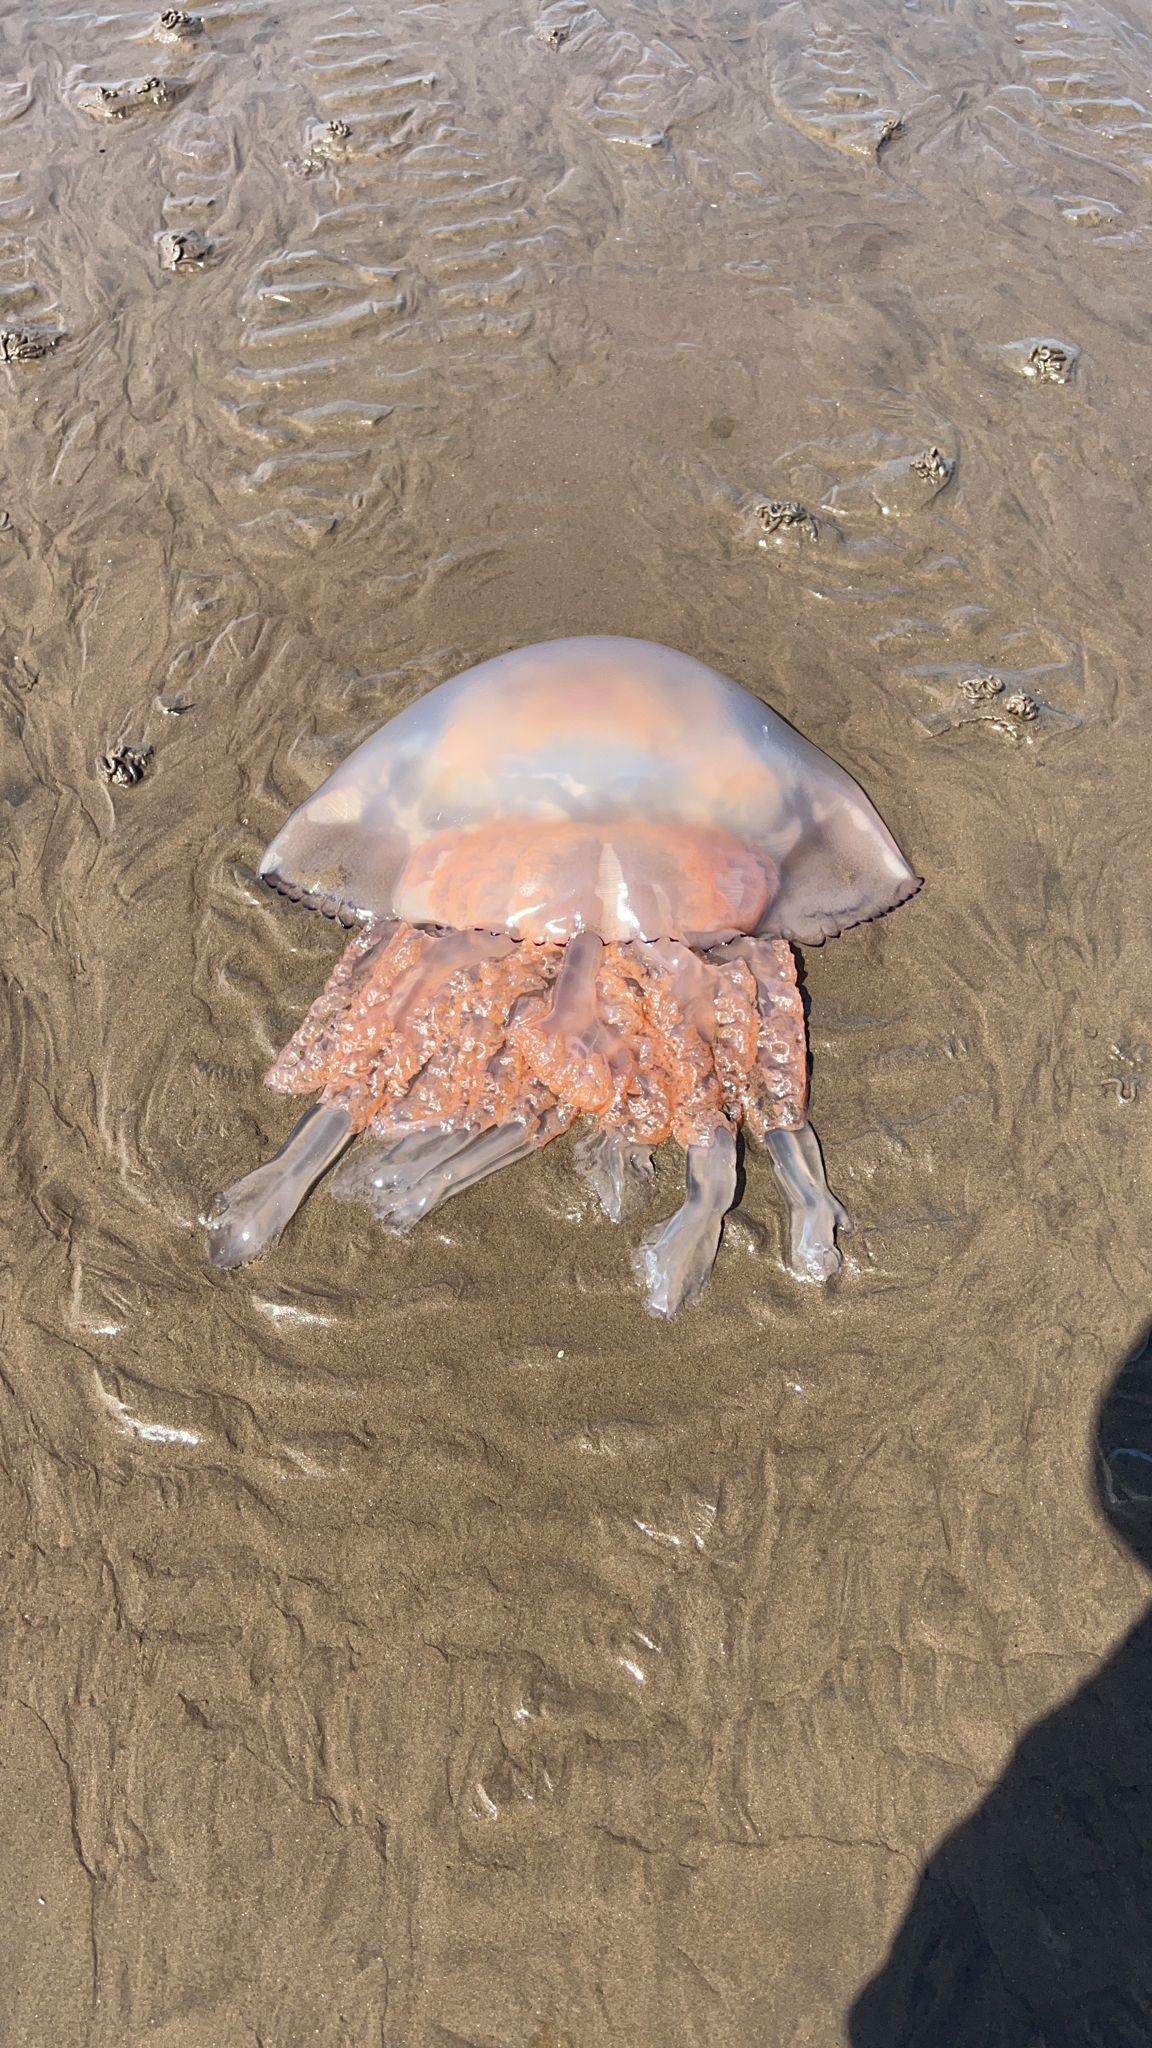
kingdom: Animalia
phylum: Cnidaria
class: Scyphozoa
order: Rhizostomeae
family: Rhizostomatidae
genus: Rhizostoma
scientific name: Rhizostoma octopus
